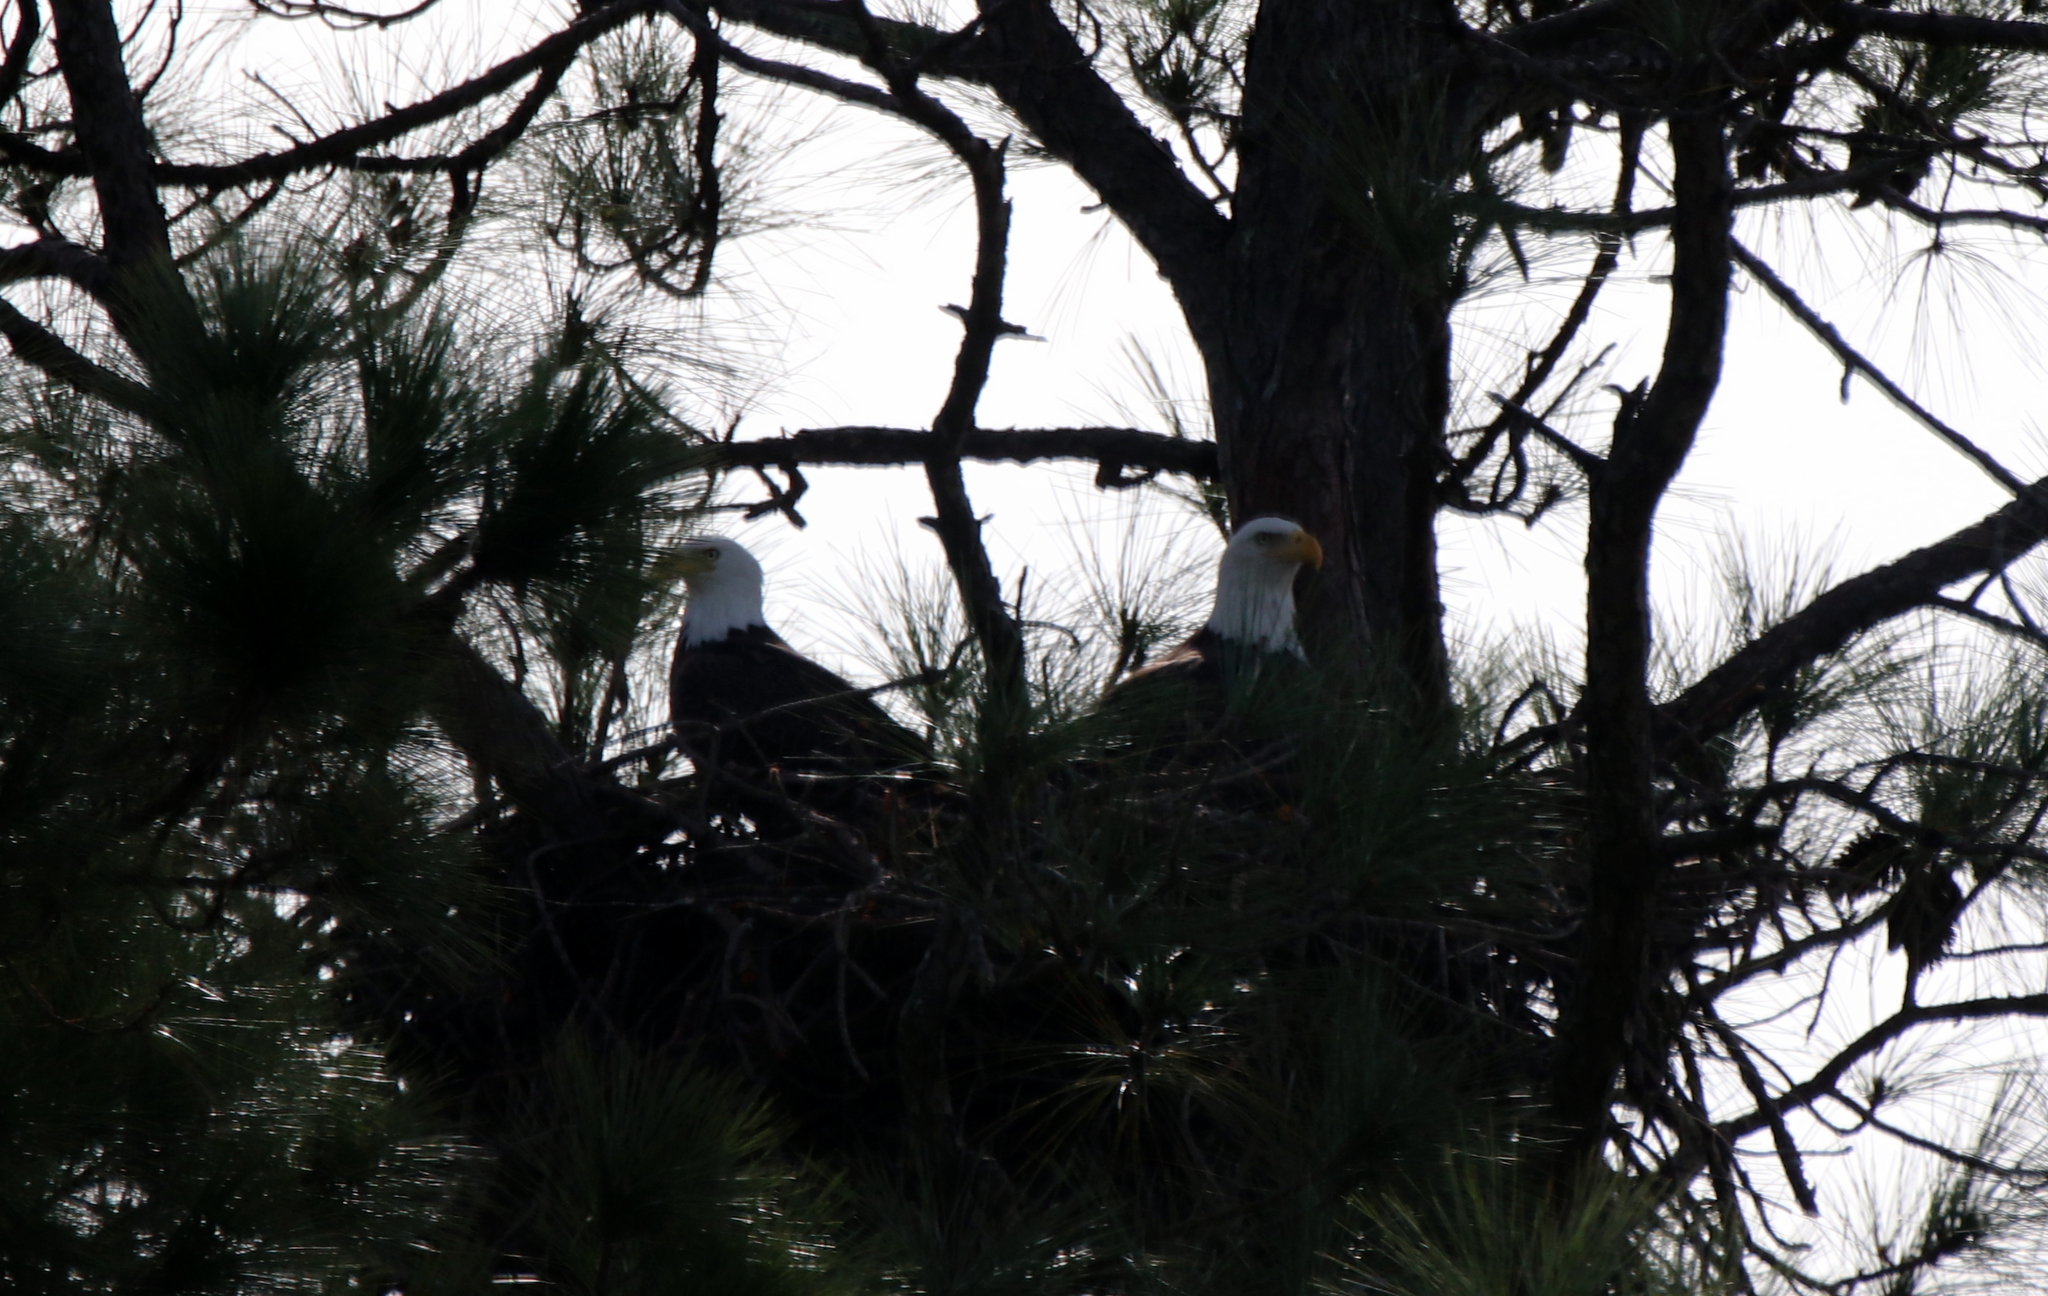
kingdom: Animalia
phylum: Chordata
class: Aves
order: Accipitriformes
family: Accipitridae
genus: Haliaeetus
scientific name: Haliaeetus leucocephalus
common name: Bald eagle
